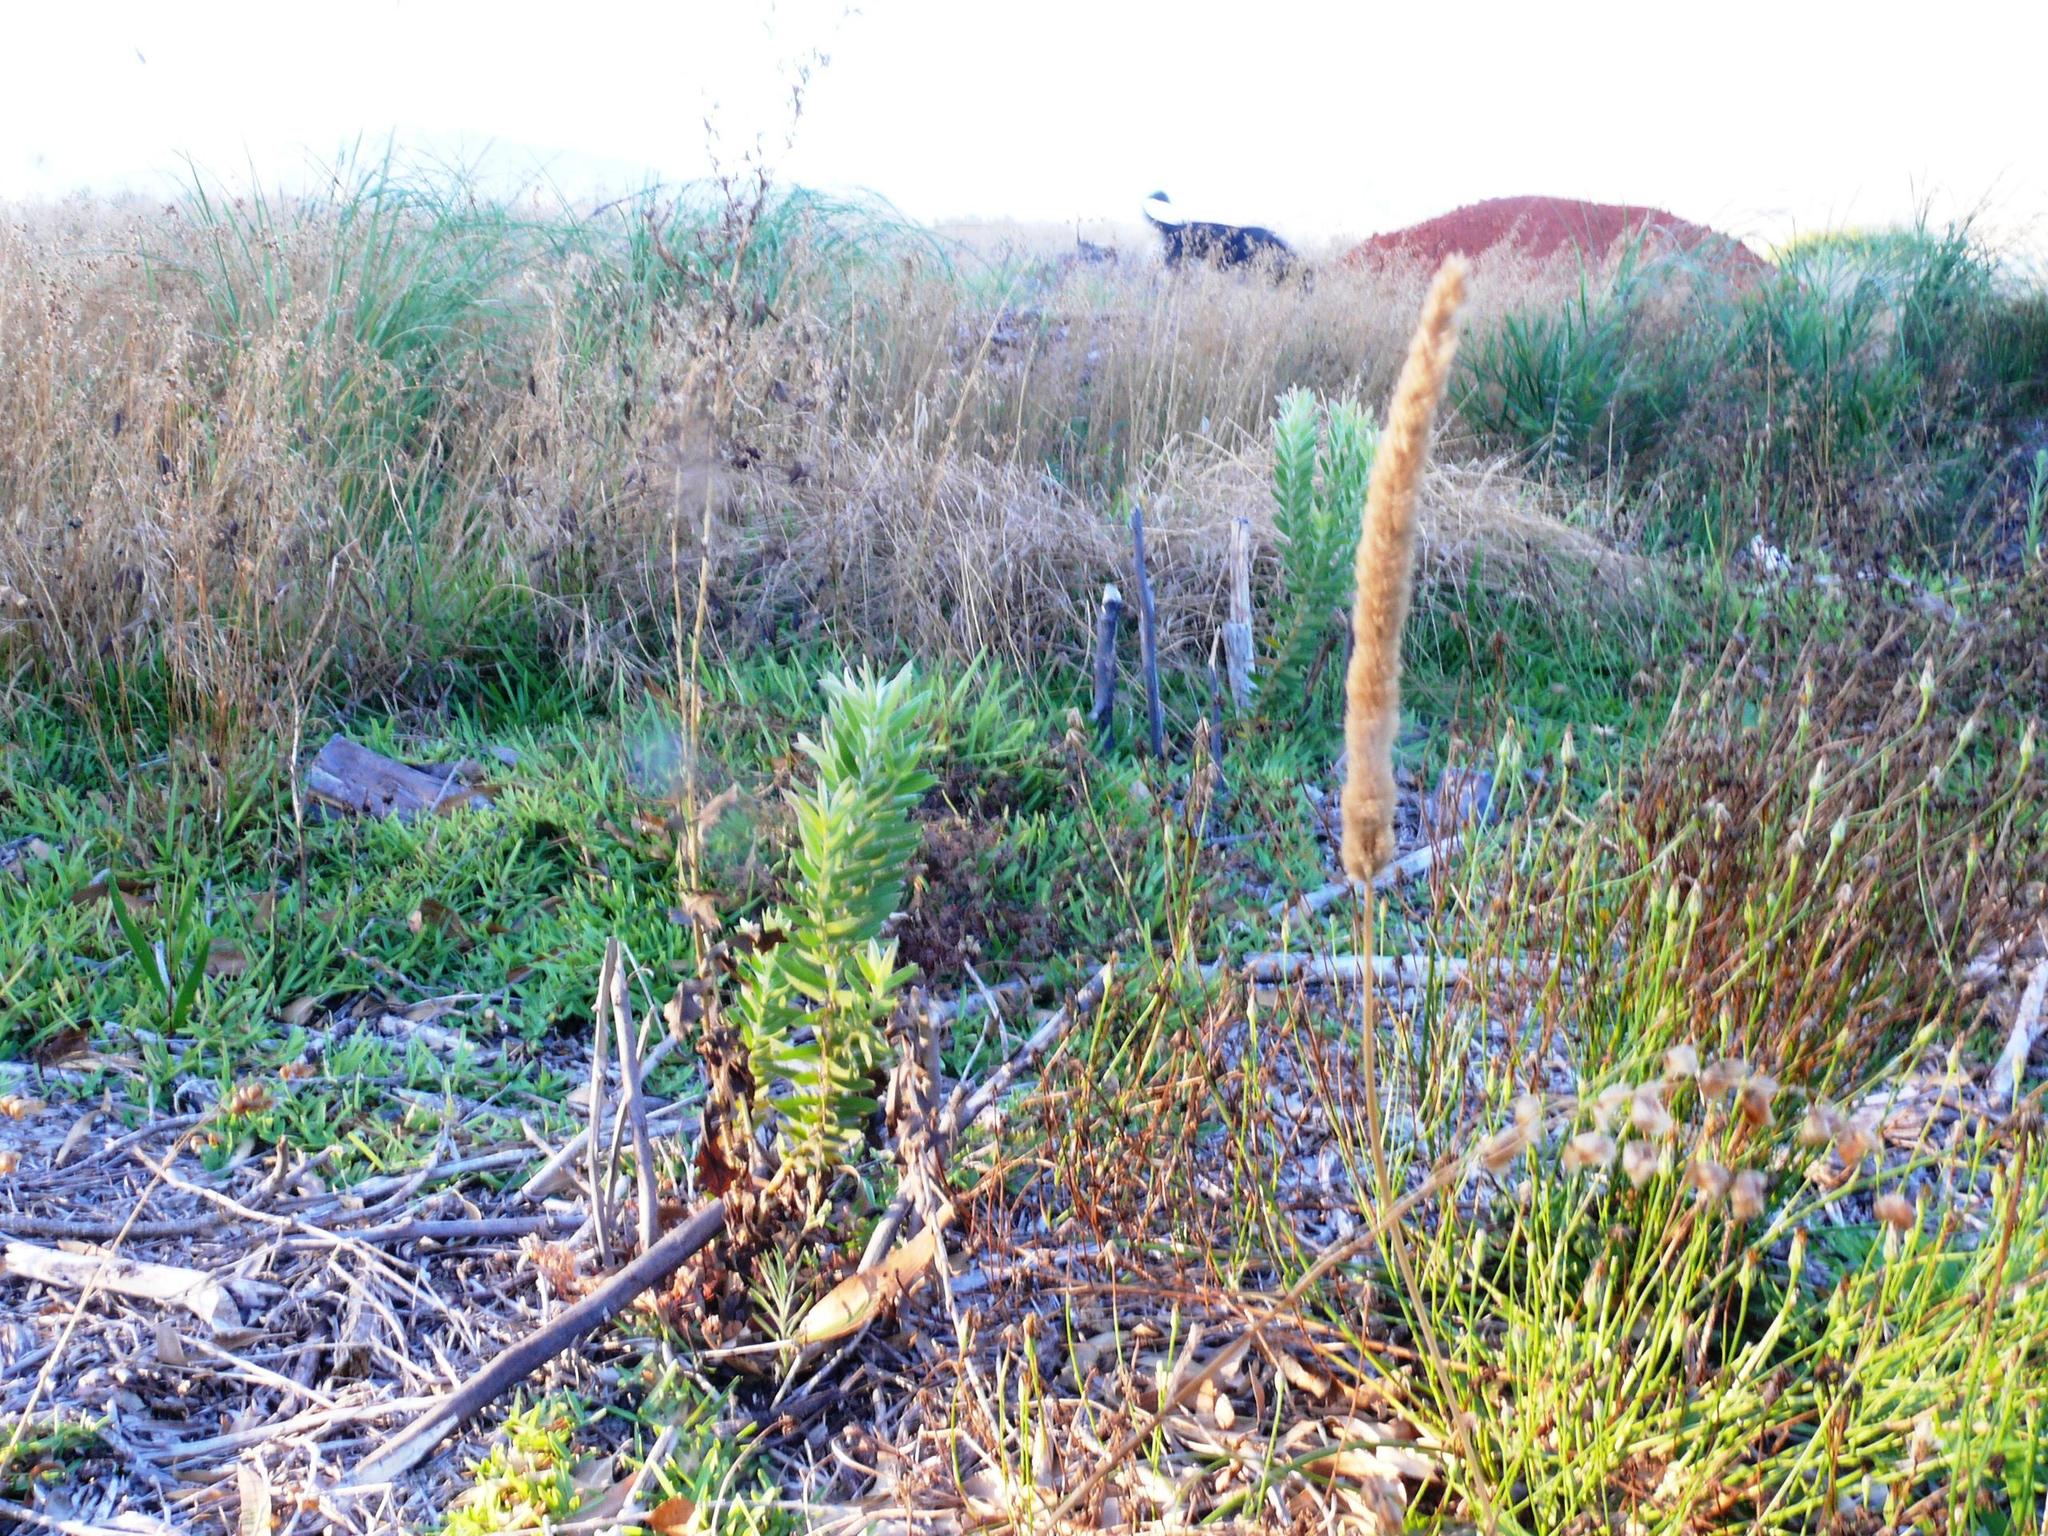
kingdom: Plantae
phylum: Tracheophyta
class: Magnoliopsida
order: Proteales
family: Proteaceae
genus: Leucadendron
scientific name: Leucadendron macowanii
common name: Acacia-leaf conebush
